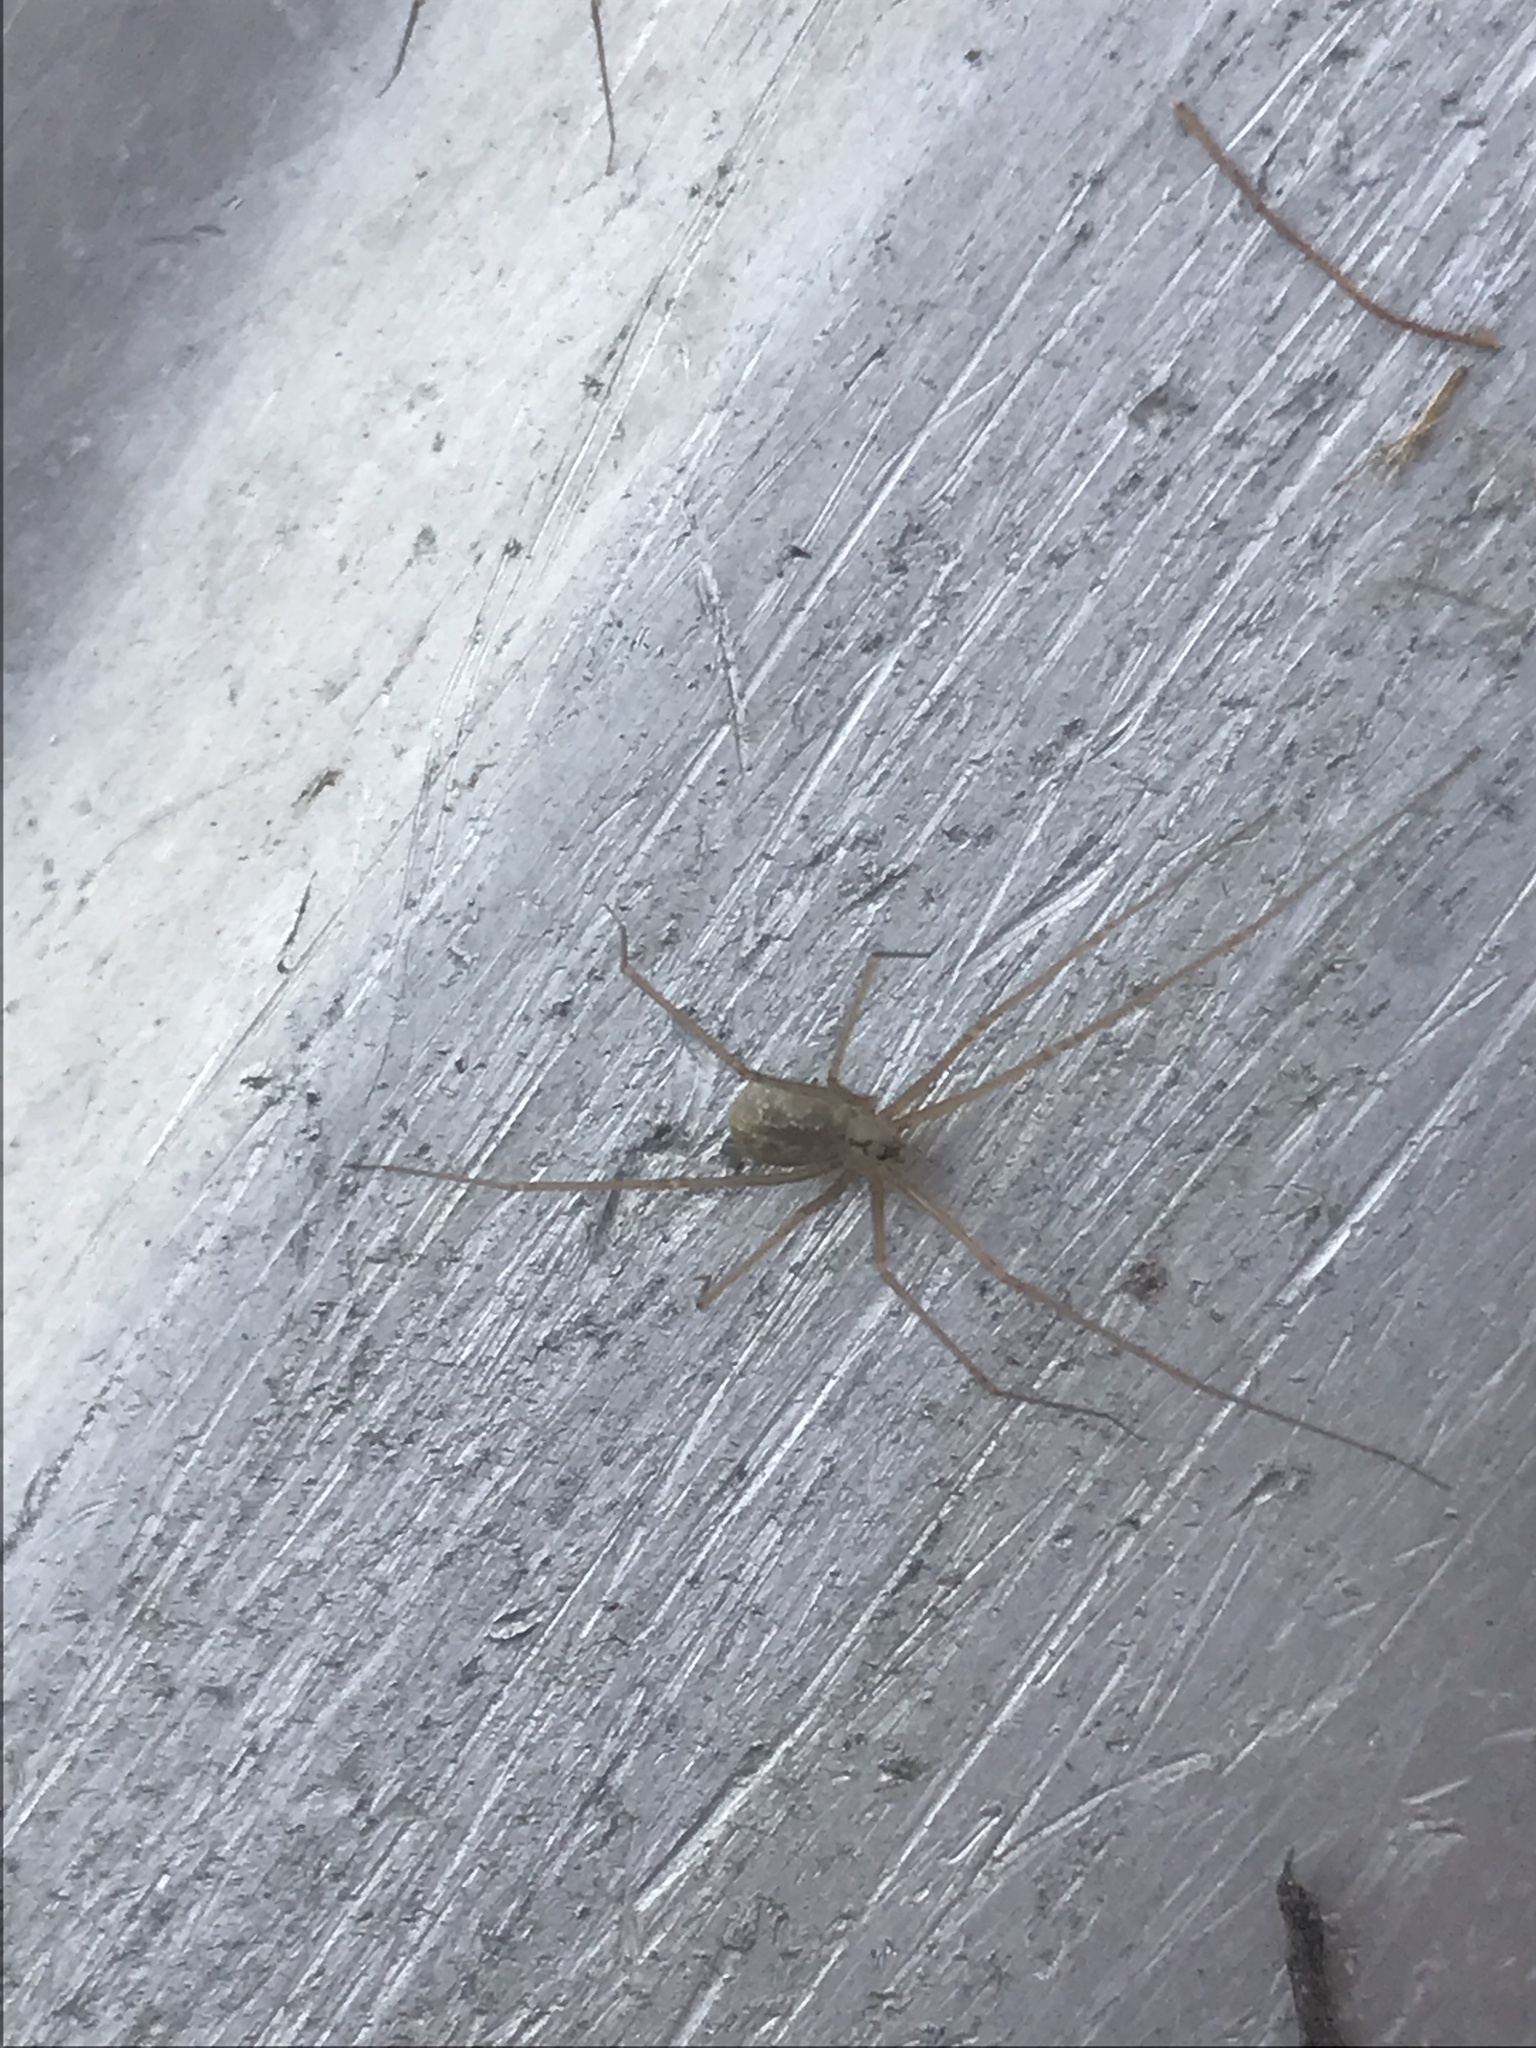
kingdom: Animalia
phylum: Arthropoda
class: Arachnida
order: Araneae
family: Pholcidae
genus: Psilochorus
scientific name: Psilochorus hesperus
